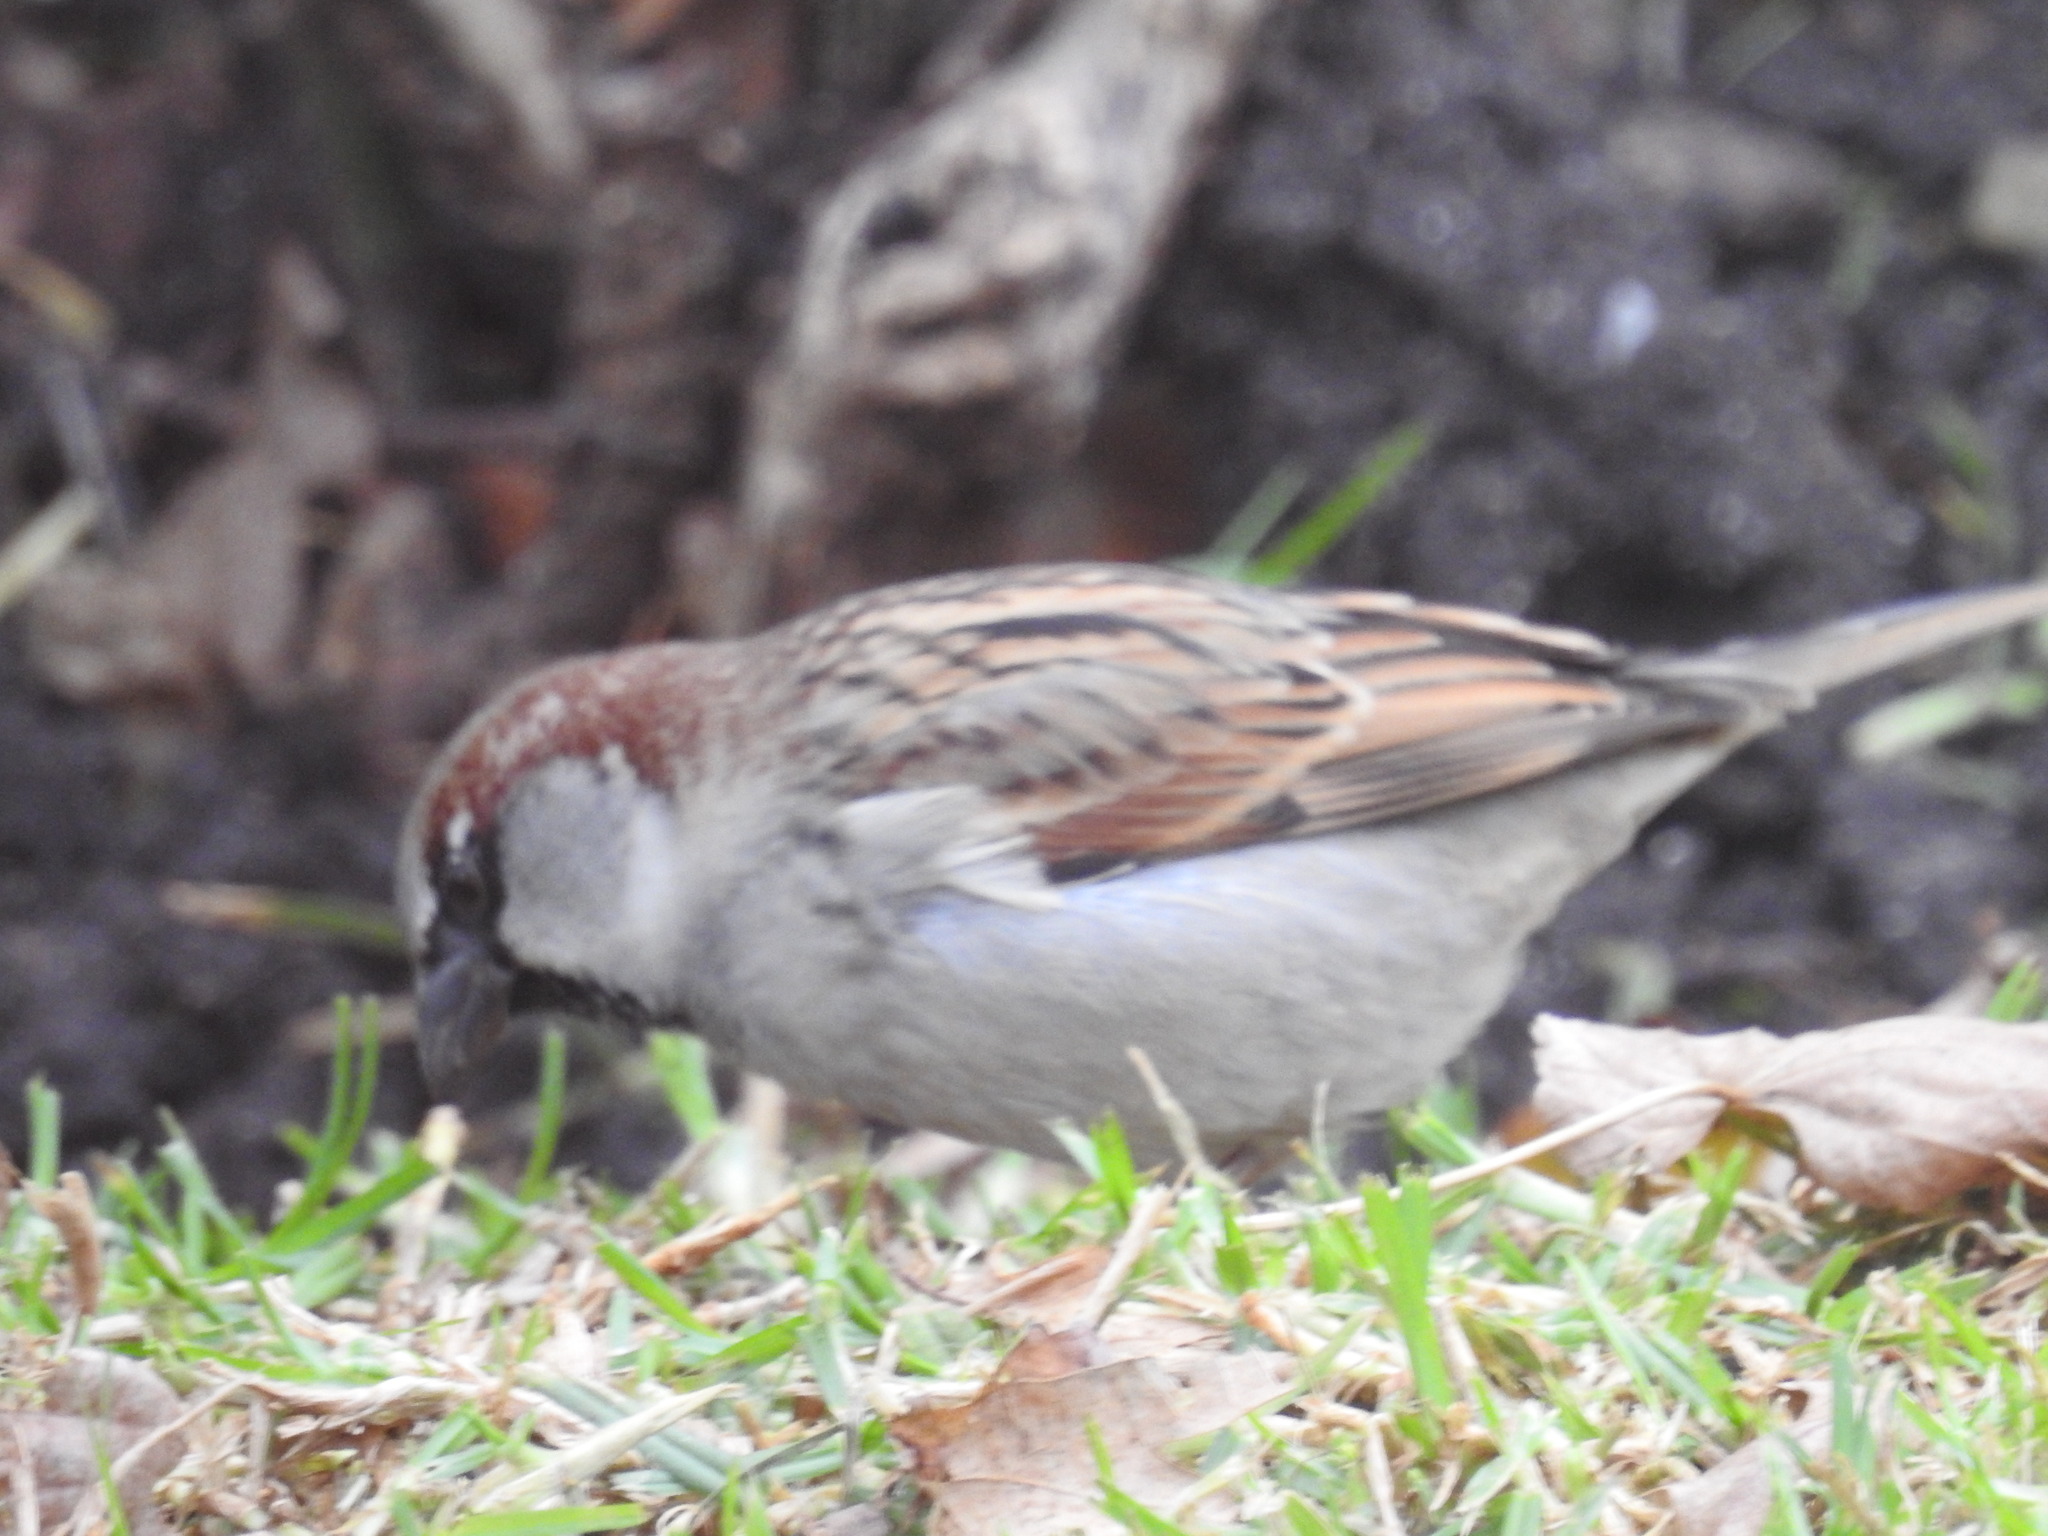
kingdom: Animalia
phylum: Chordata
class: Aves
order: Passeriformes
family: Passeridae
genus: Passer
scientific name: Passer domesticus
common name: House sparrow
